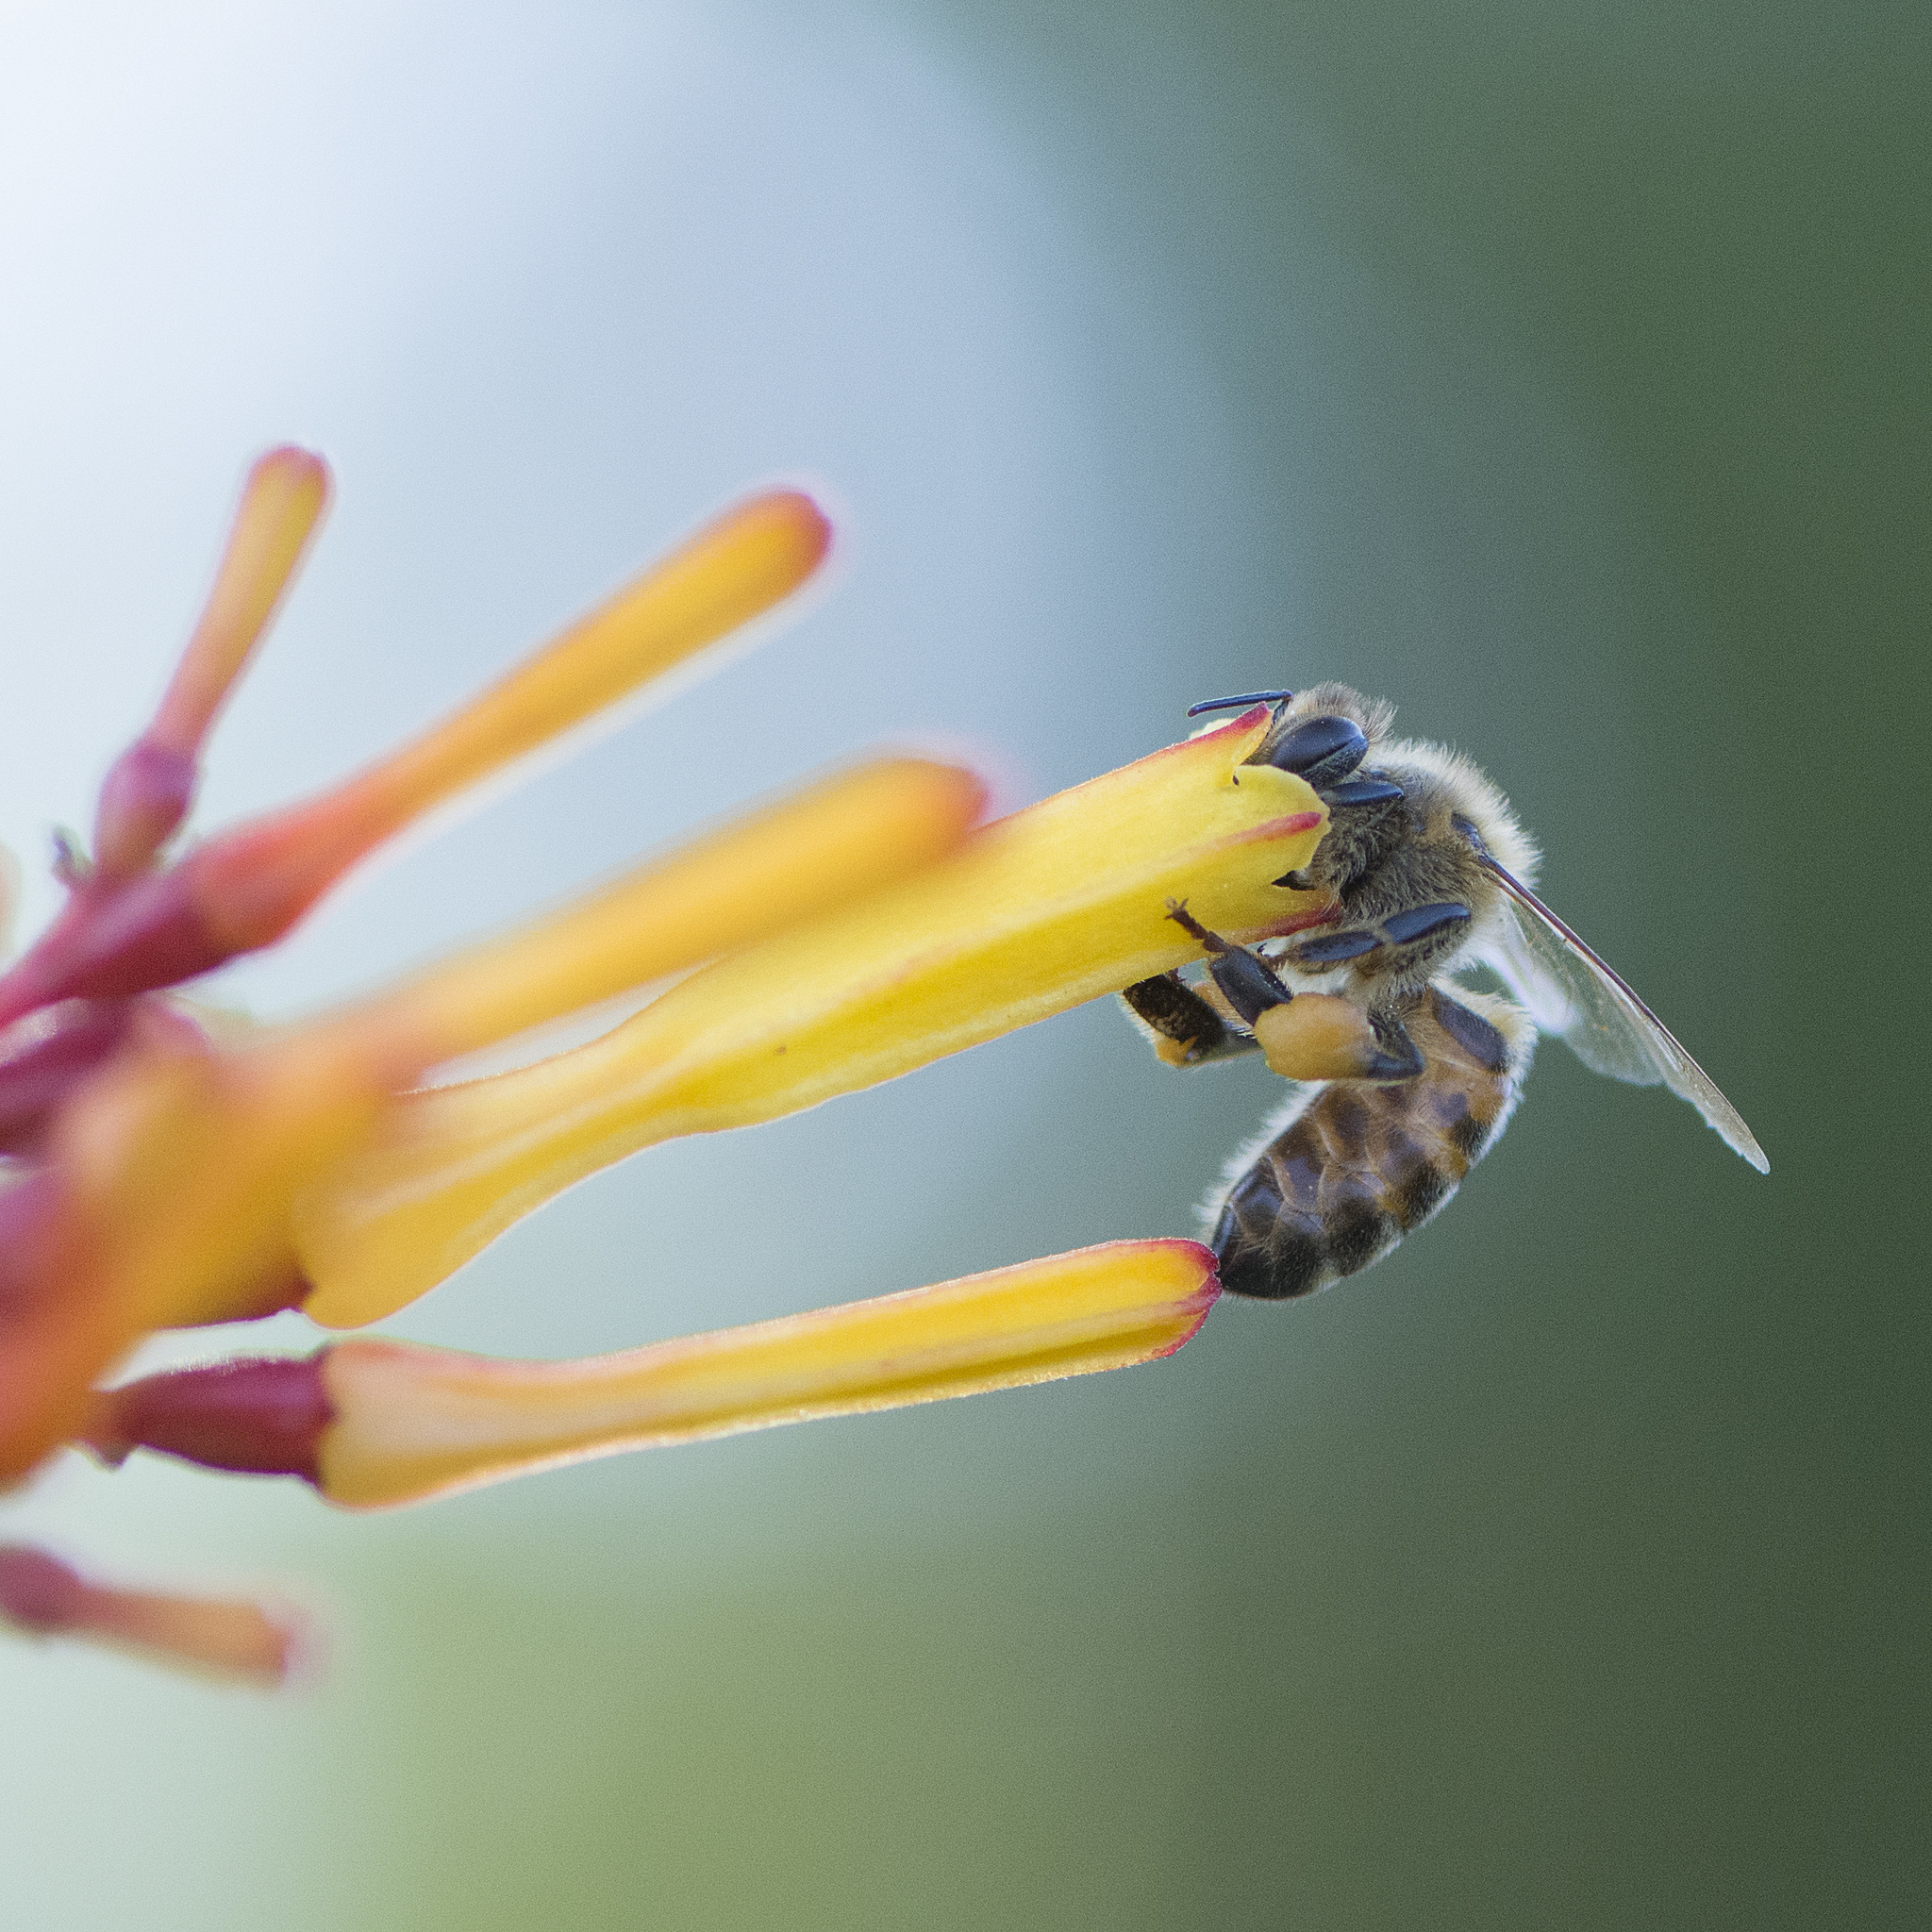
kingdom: Animalia
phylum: Arthropoda
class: Insecta
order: Hymenoptera
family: Apidae
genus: Apis
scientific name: Apis mellifera
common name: Honey bee
